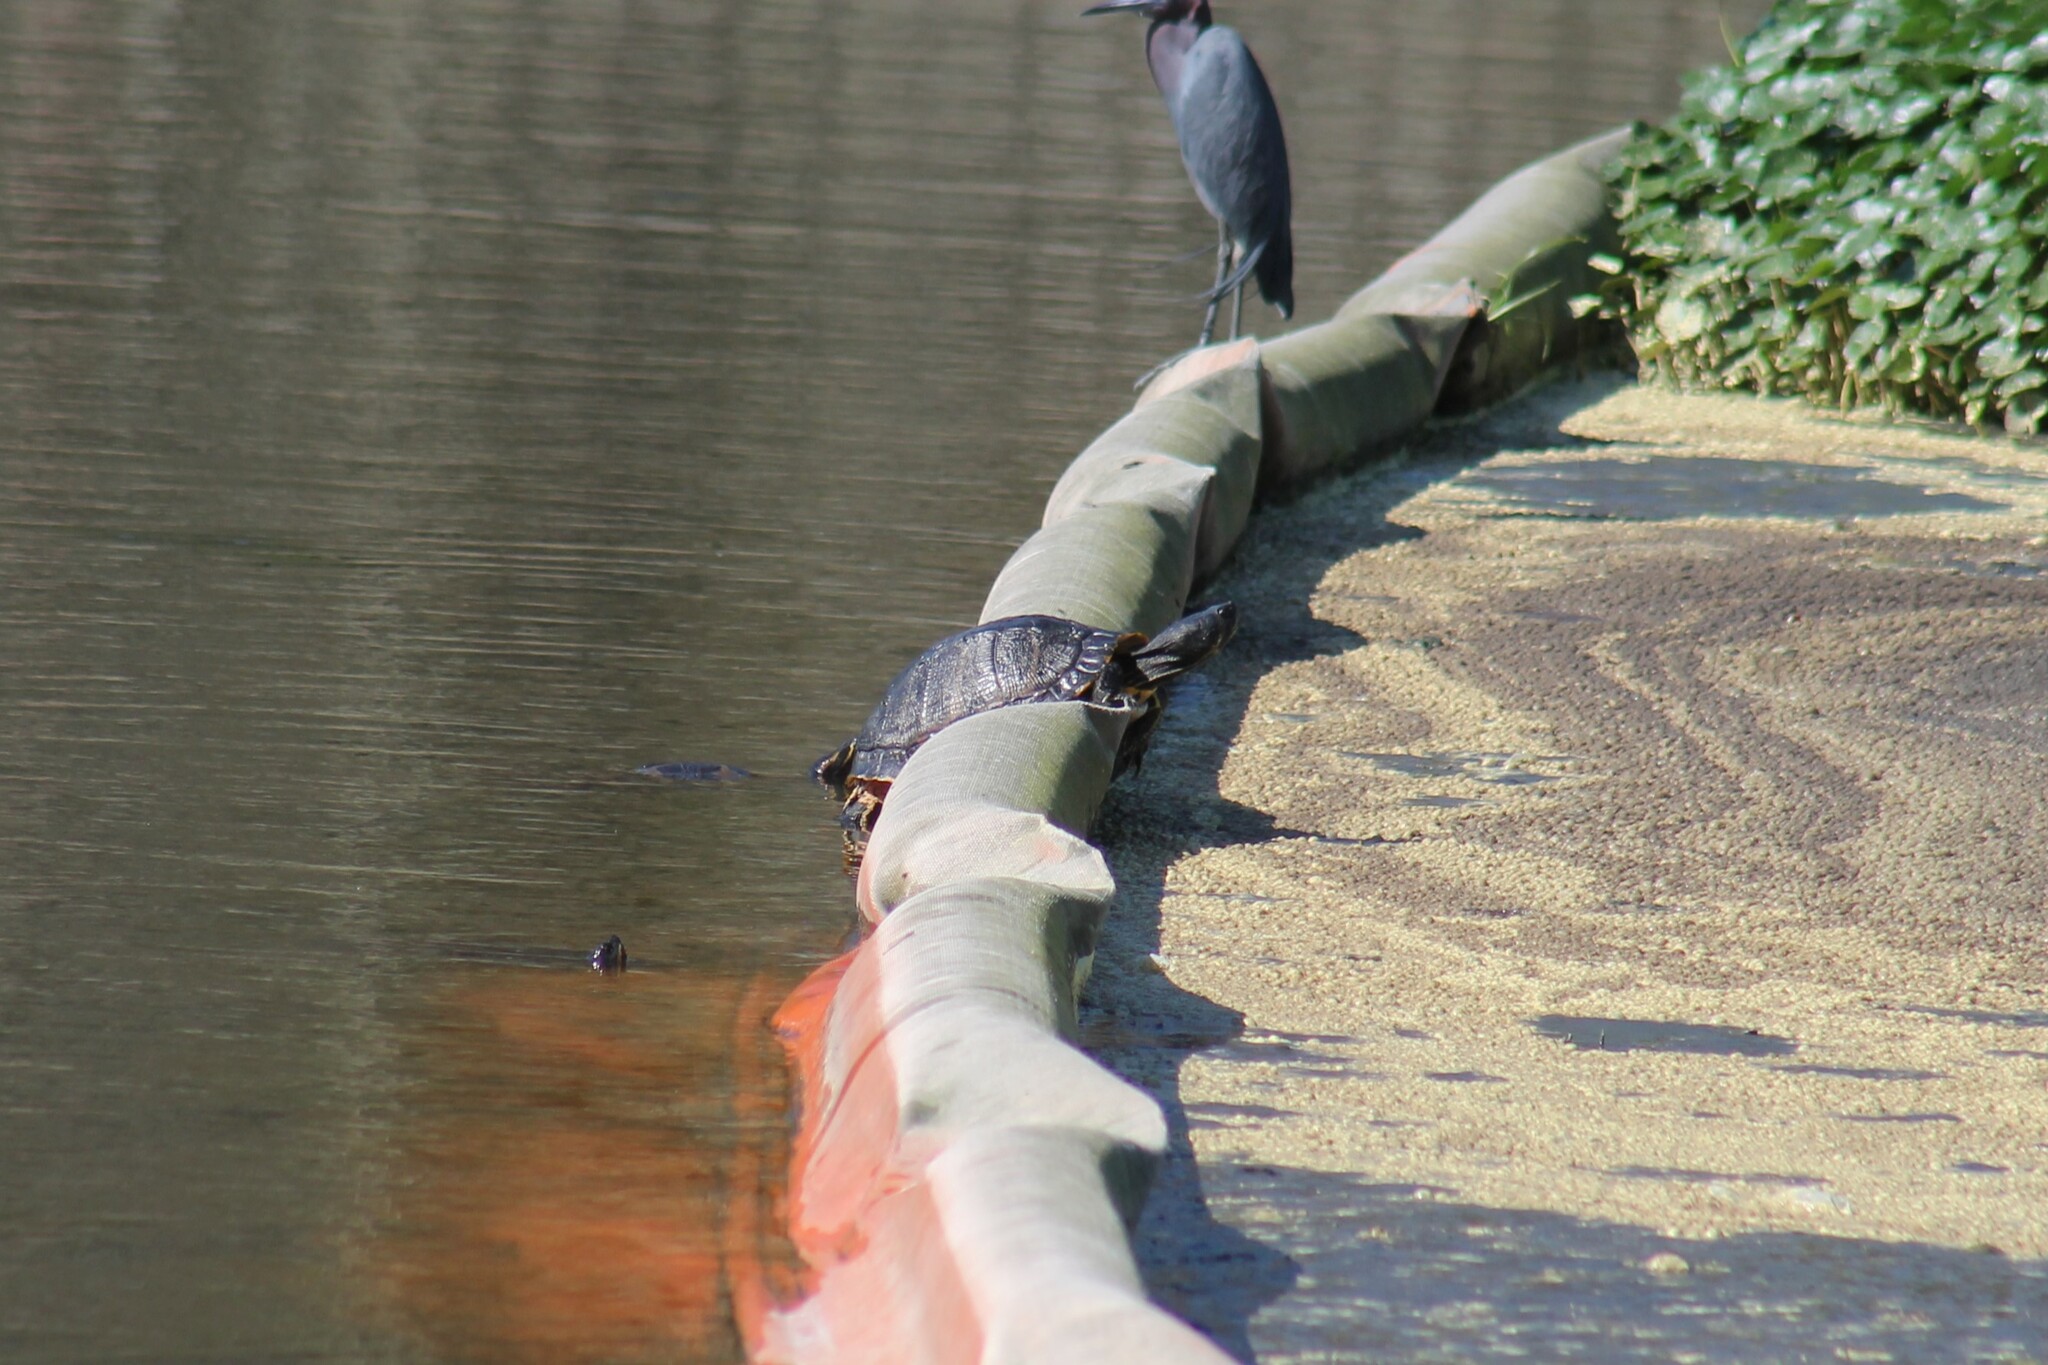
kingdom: Animalia
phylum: Chordata
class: Testudines
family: Emydidae
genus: Trachemys
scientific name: Trachemys scripta
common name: Slider
